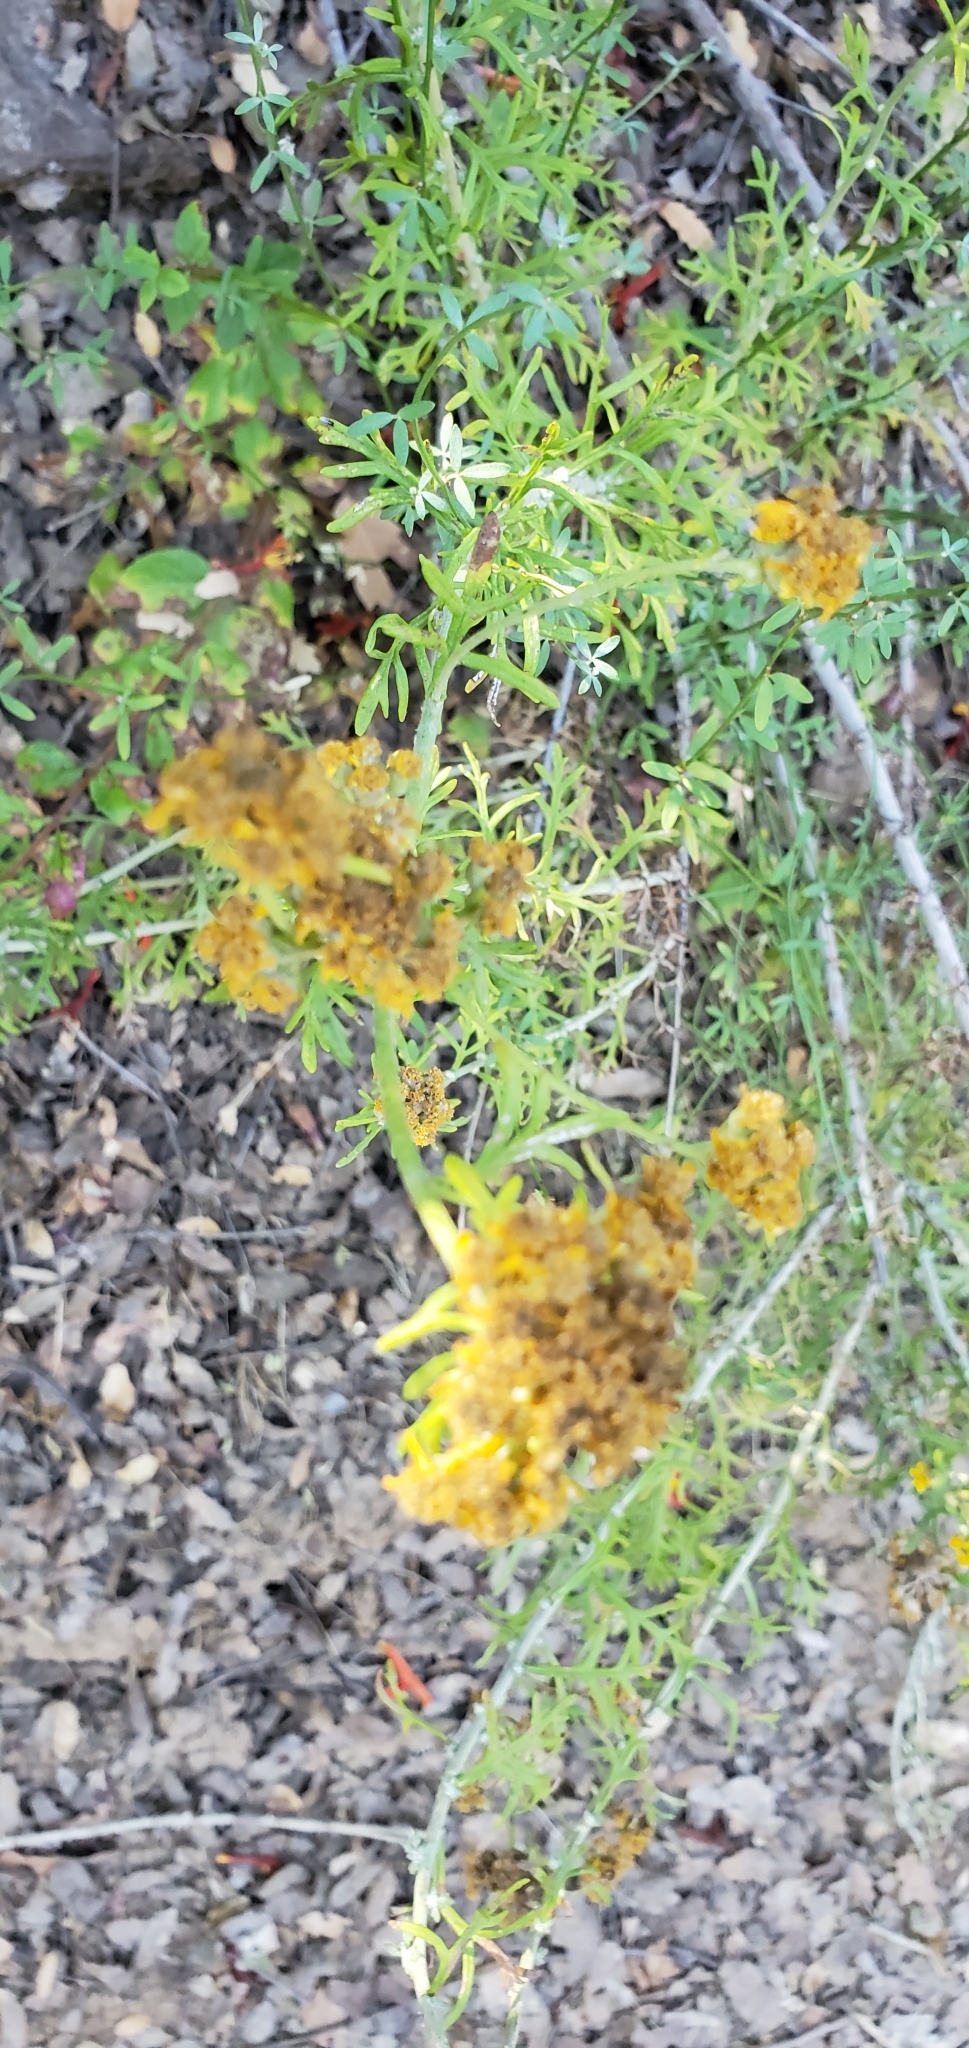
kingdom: Plantae
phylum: Tracheophyta
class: Magnoliopsida
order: Asterales
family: Asteraceae
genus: Eriophyllum
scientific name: Eriophyllum confertiflorum
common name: Golden-yarrow
